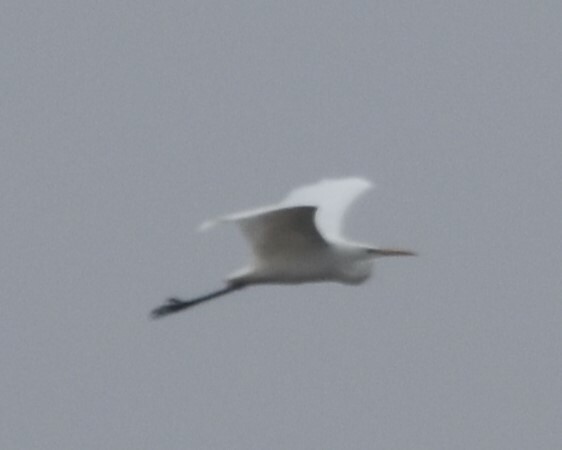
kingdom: Animalia
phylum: Chordata
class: Aves
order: Pelecaniformes
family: Ardeidae
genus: Ardea
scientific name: Ardea alba
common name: Great egret
